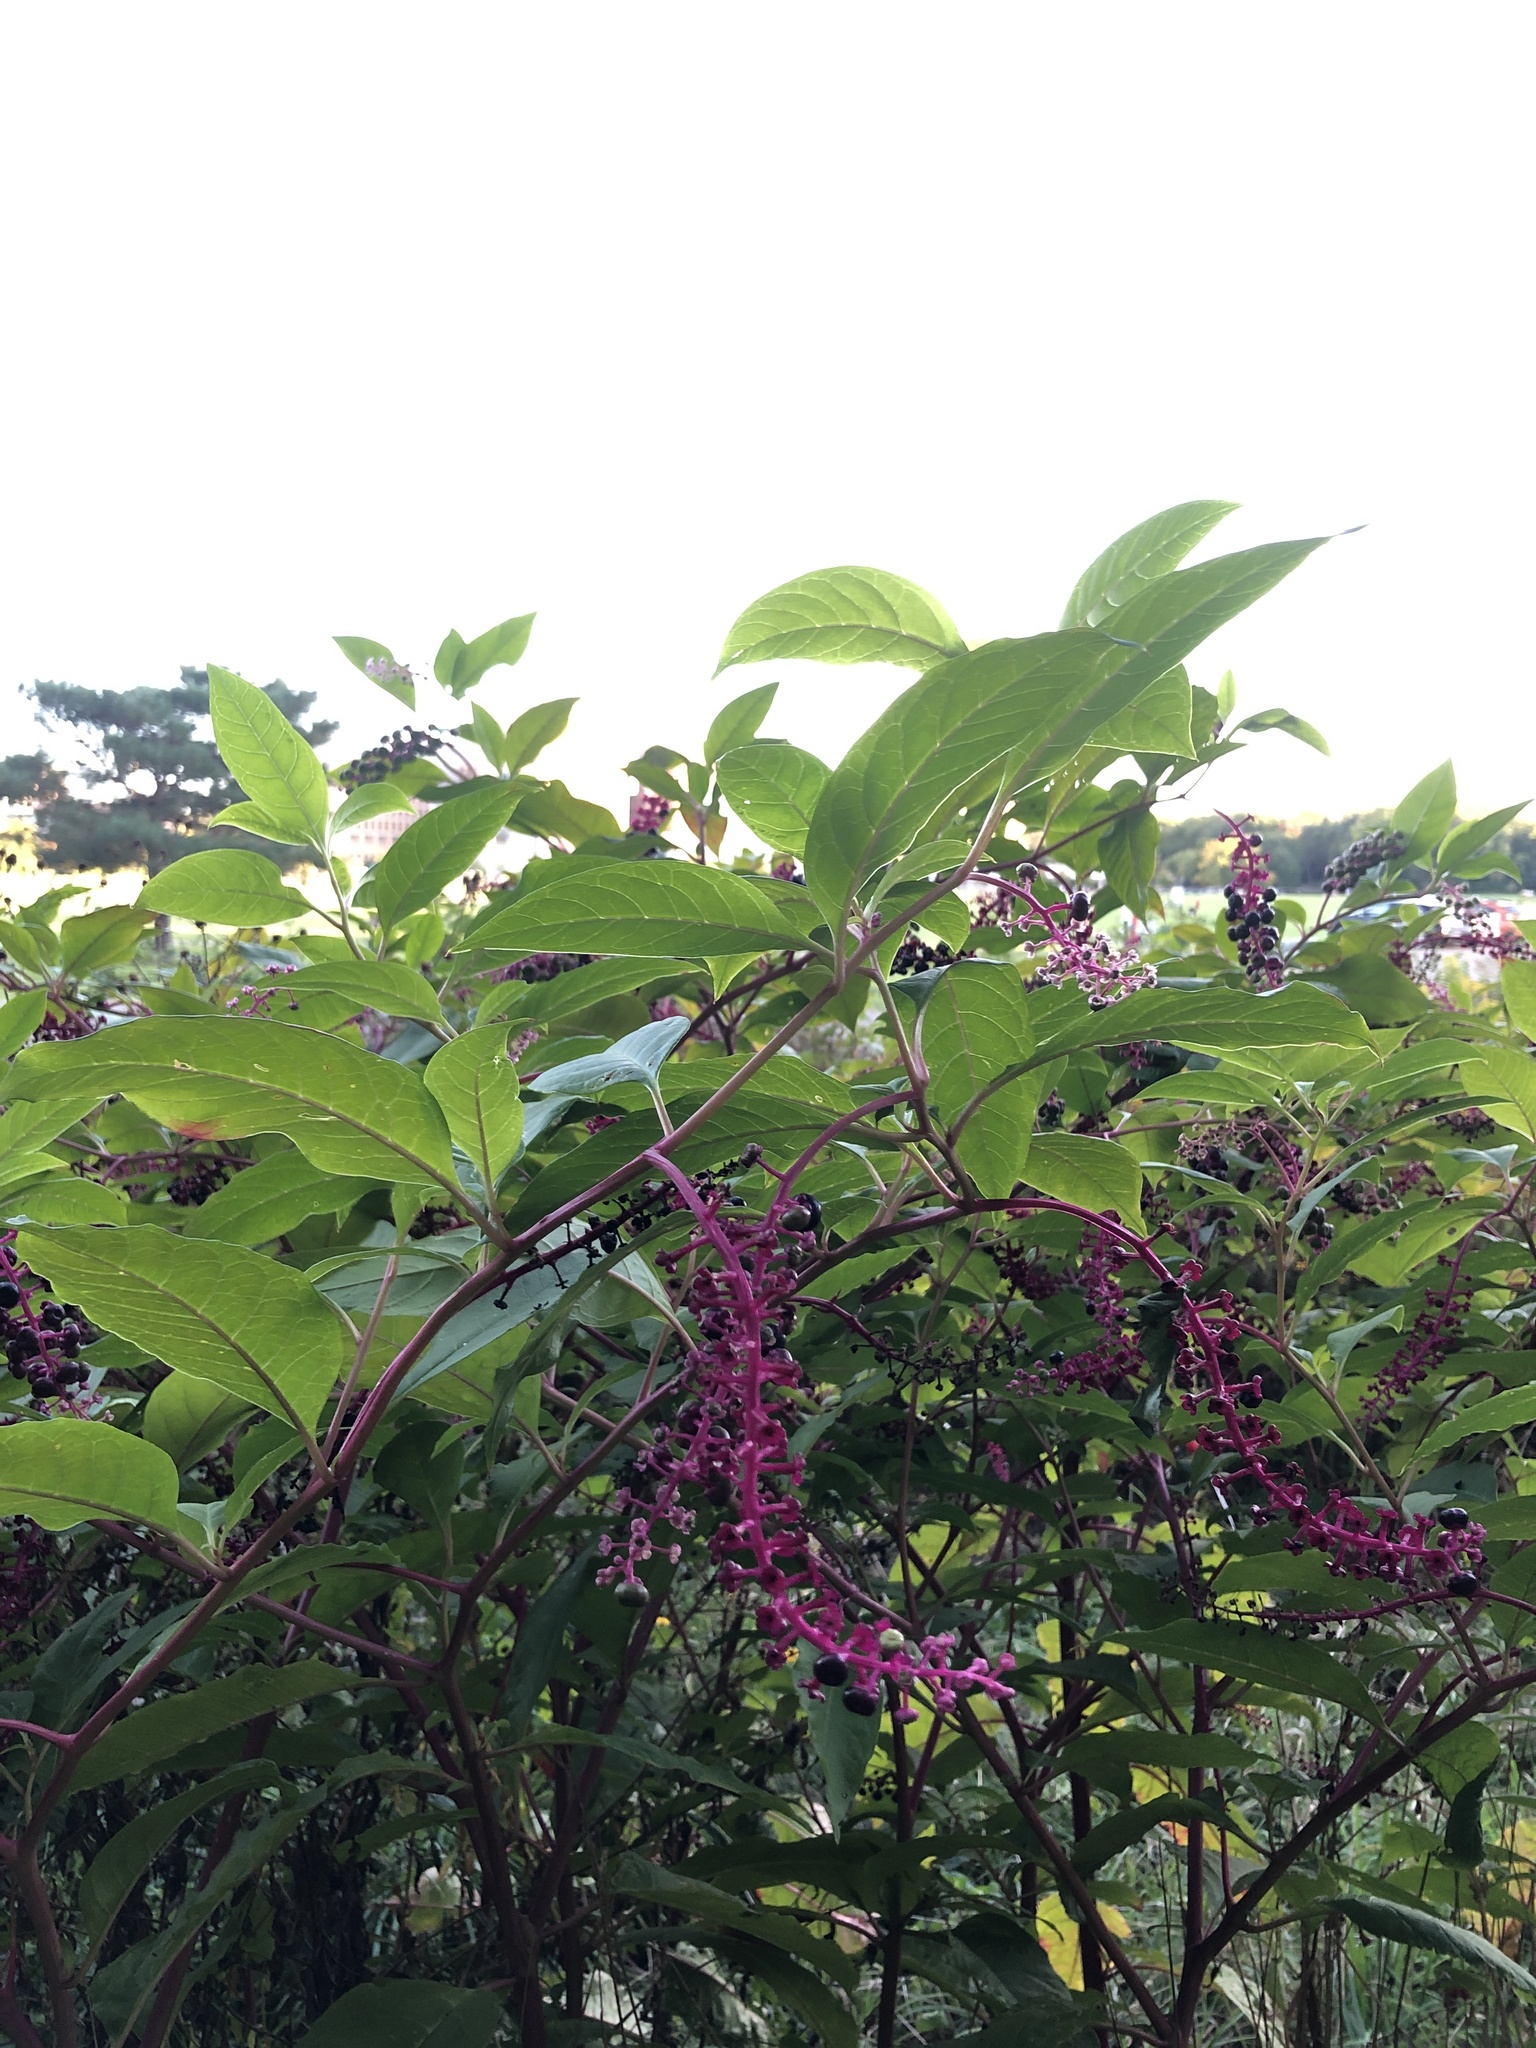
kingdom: Plantae
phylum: Tracheophyta
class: Magnoliopsida
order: Caryophyllales
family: Phytolaccaceae
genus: Phytolacca
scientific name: Phytolacca americana
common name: American pokeweed
